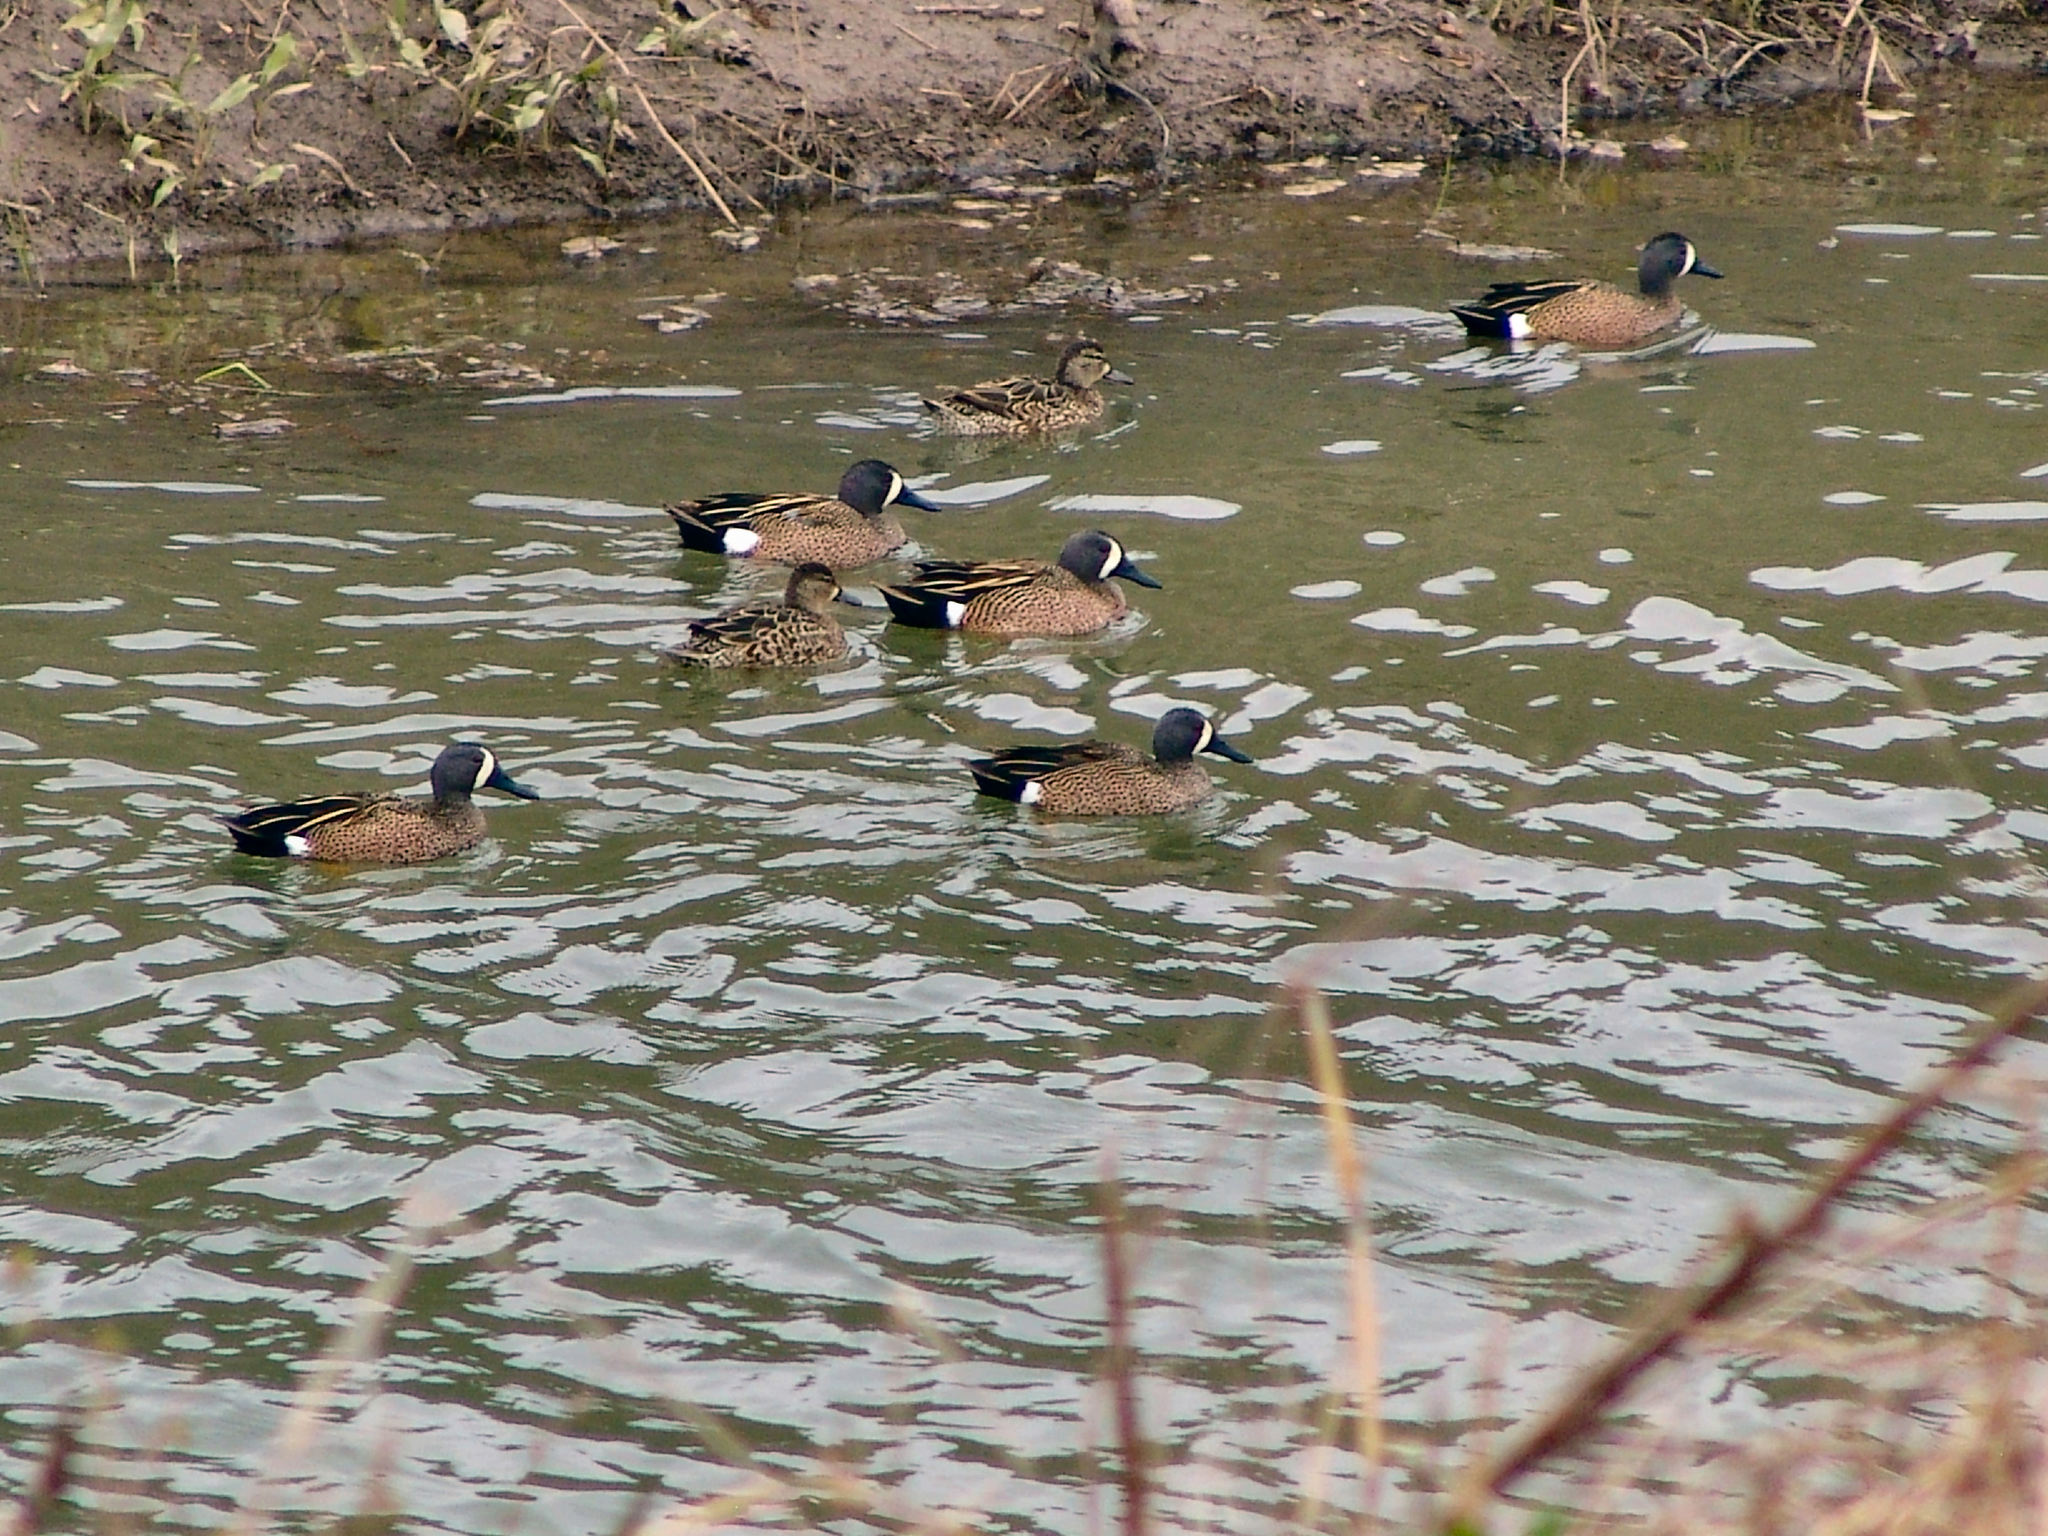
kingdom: Animalia
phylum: Chordata
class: Aves
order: Anseriformes
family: Anatidae
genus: Spatula
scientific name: Spatula discors
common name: Blue-winged teal
